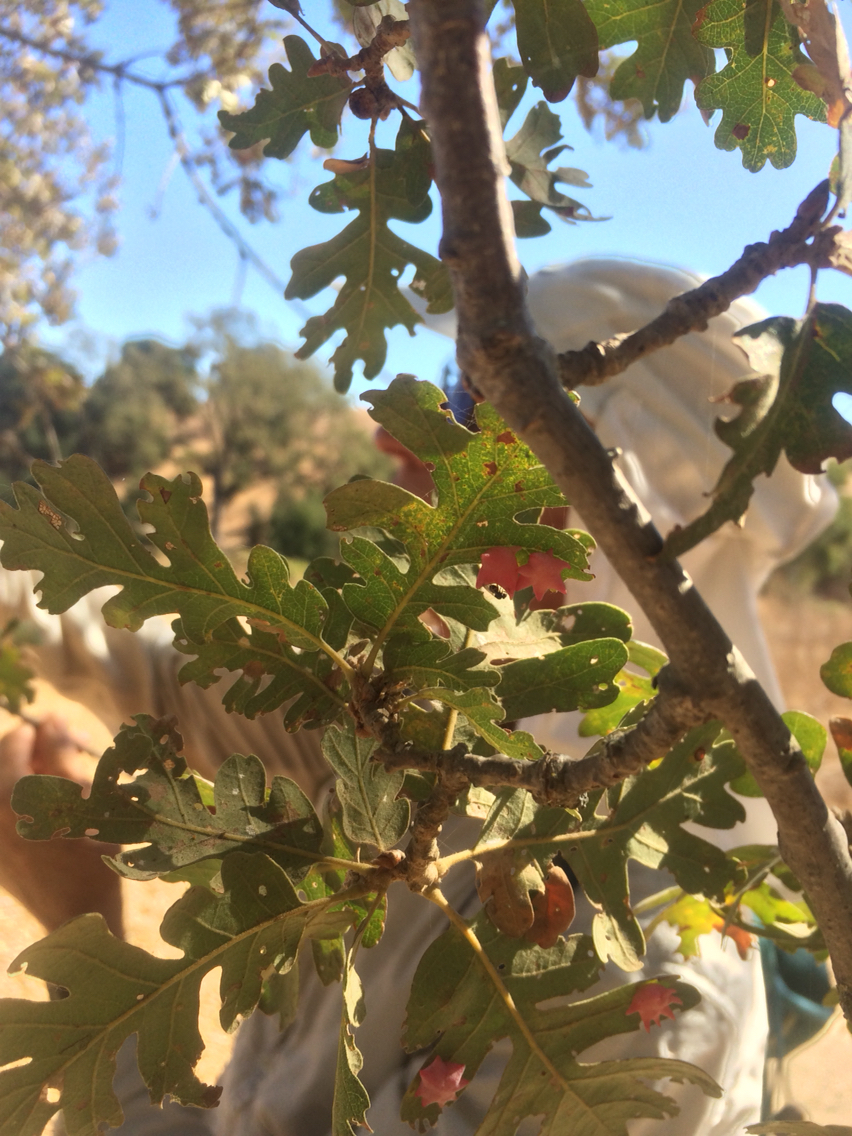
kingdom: Animalia
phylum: Arthropoda
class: Insecta
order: Hymenoptera
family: Cynipidae
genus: Cynips
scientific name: Cynips douglasi
